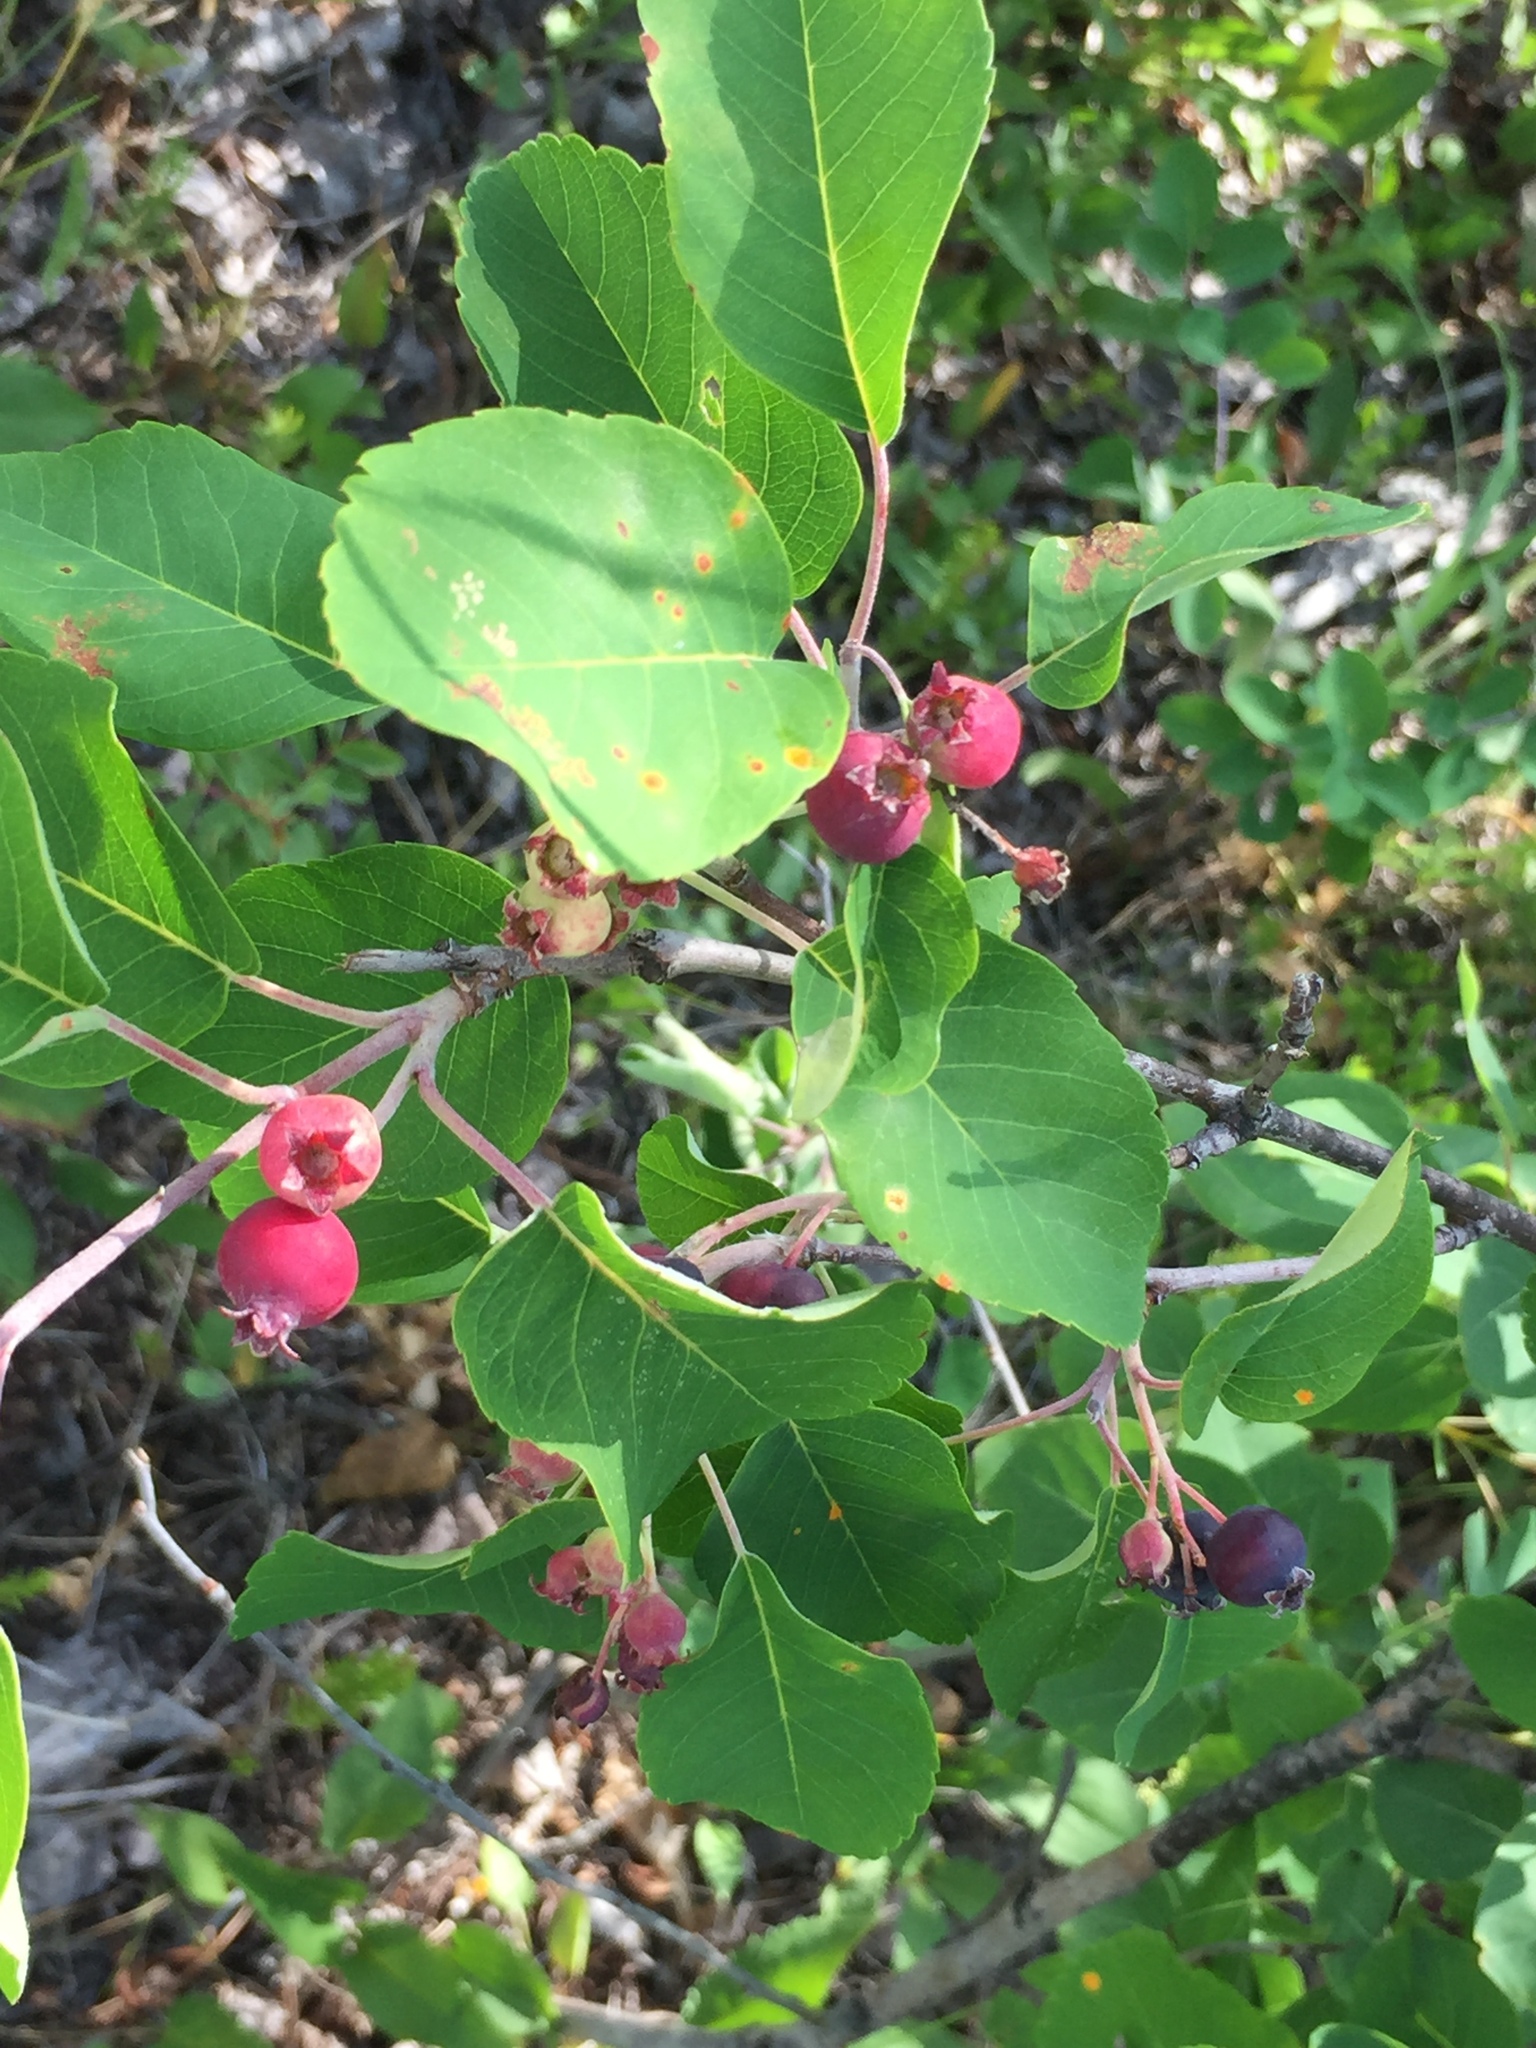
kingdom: Plantae
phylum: Tracheophyta
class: Magnoliopsida
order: Rosales
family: Rosaceae
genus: Amelanchier
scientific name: Amelanchier alnifolia
